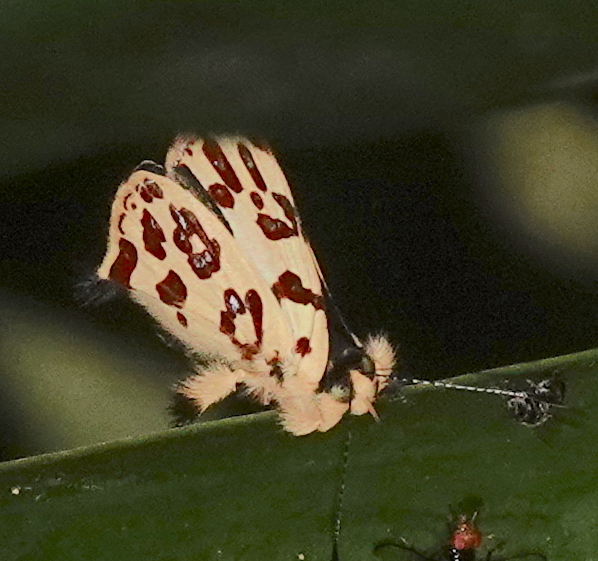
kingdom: Animalia
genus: Anteros
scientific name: Anteros bracteatus
